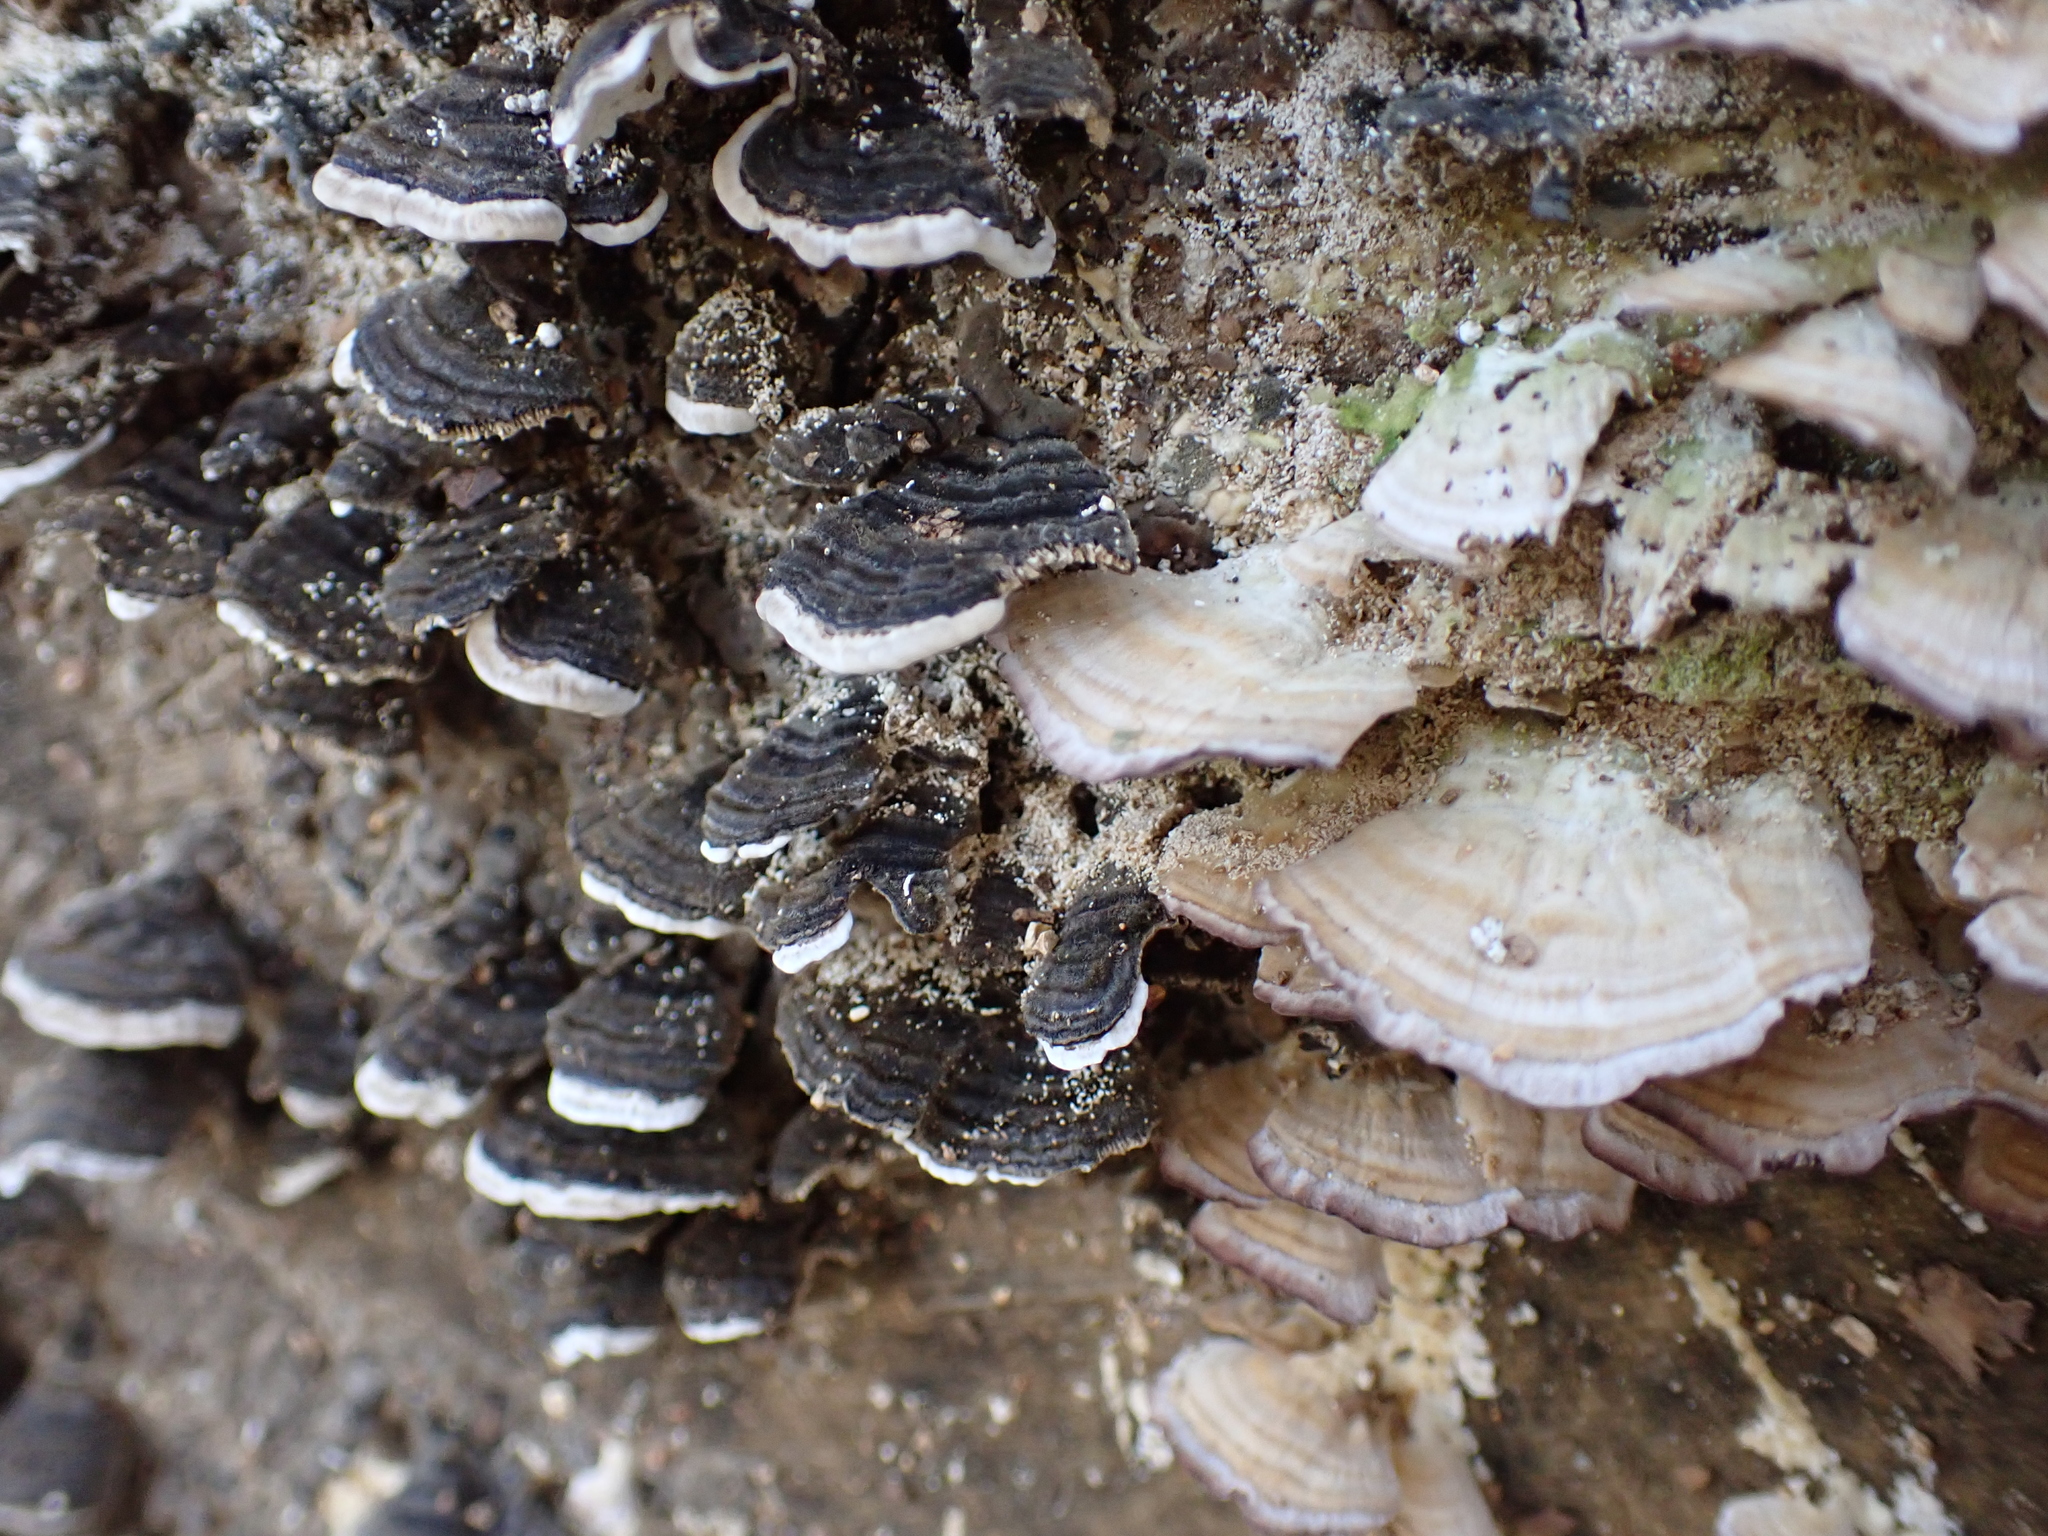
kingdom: Fungi
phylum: Basidiomycota
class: Agaricomycetes
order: Polyporales
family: Polyporaceae
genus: Trametes
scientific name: Trametes versicolor
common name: Turkeytail
